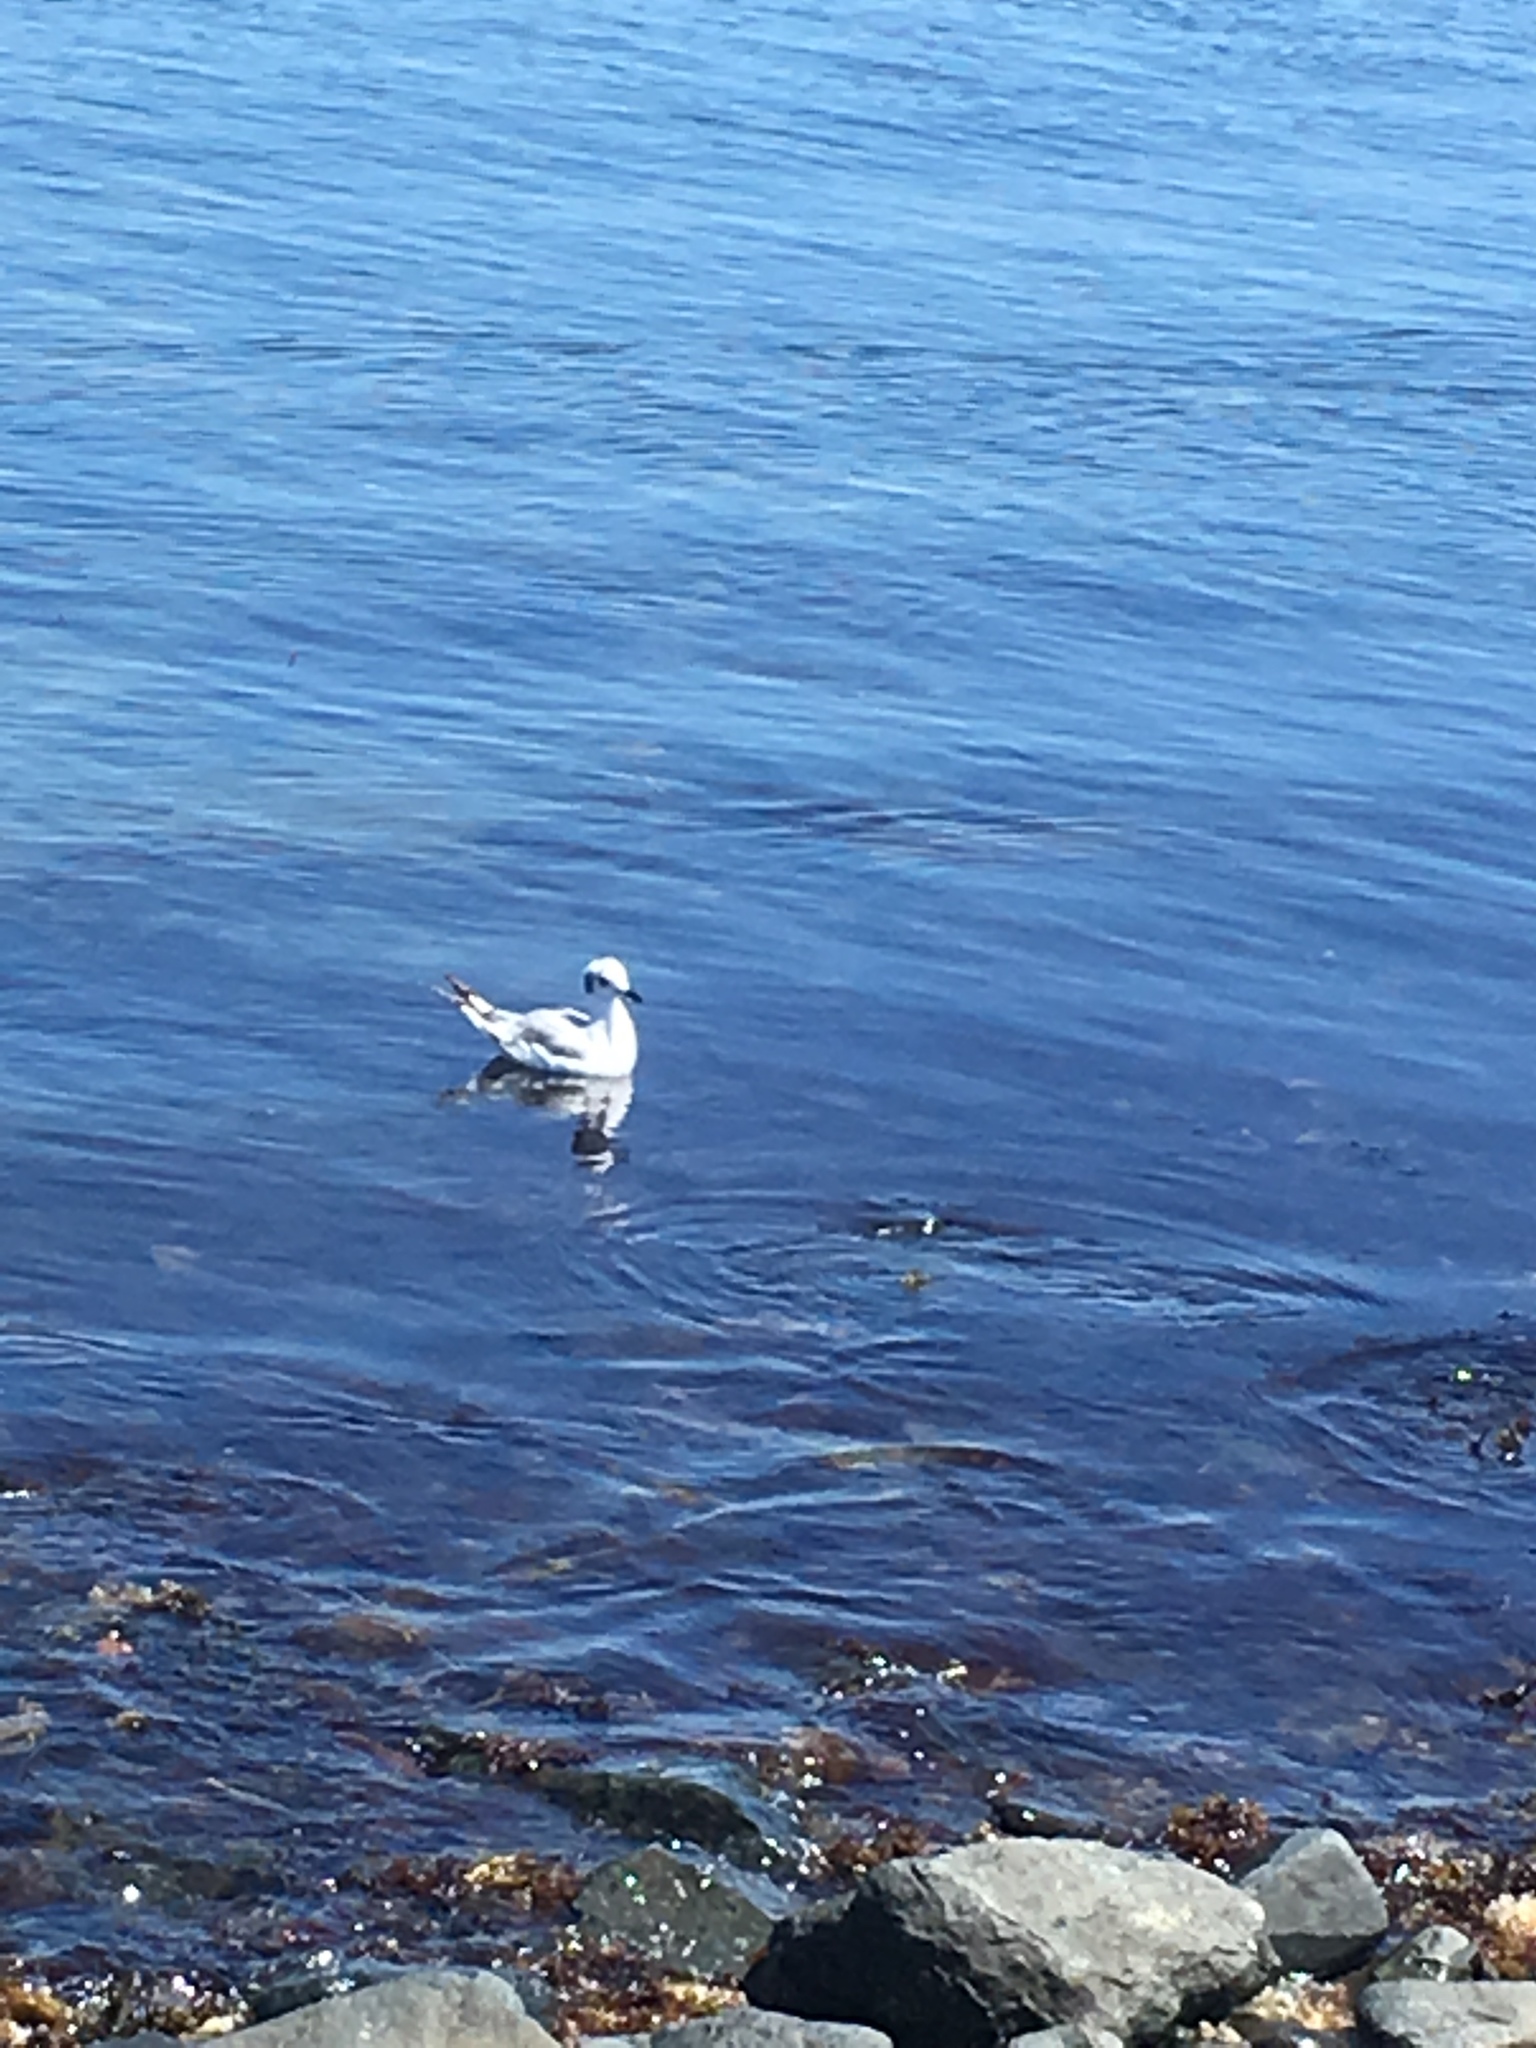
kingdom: Animalia
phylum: Chordata
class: Aves
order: Charadriiformes
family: Laridae
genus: Chroicocephalus
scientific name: Chroicocephalus philadelphia
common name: Bonaparte's gull
